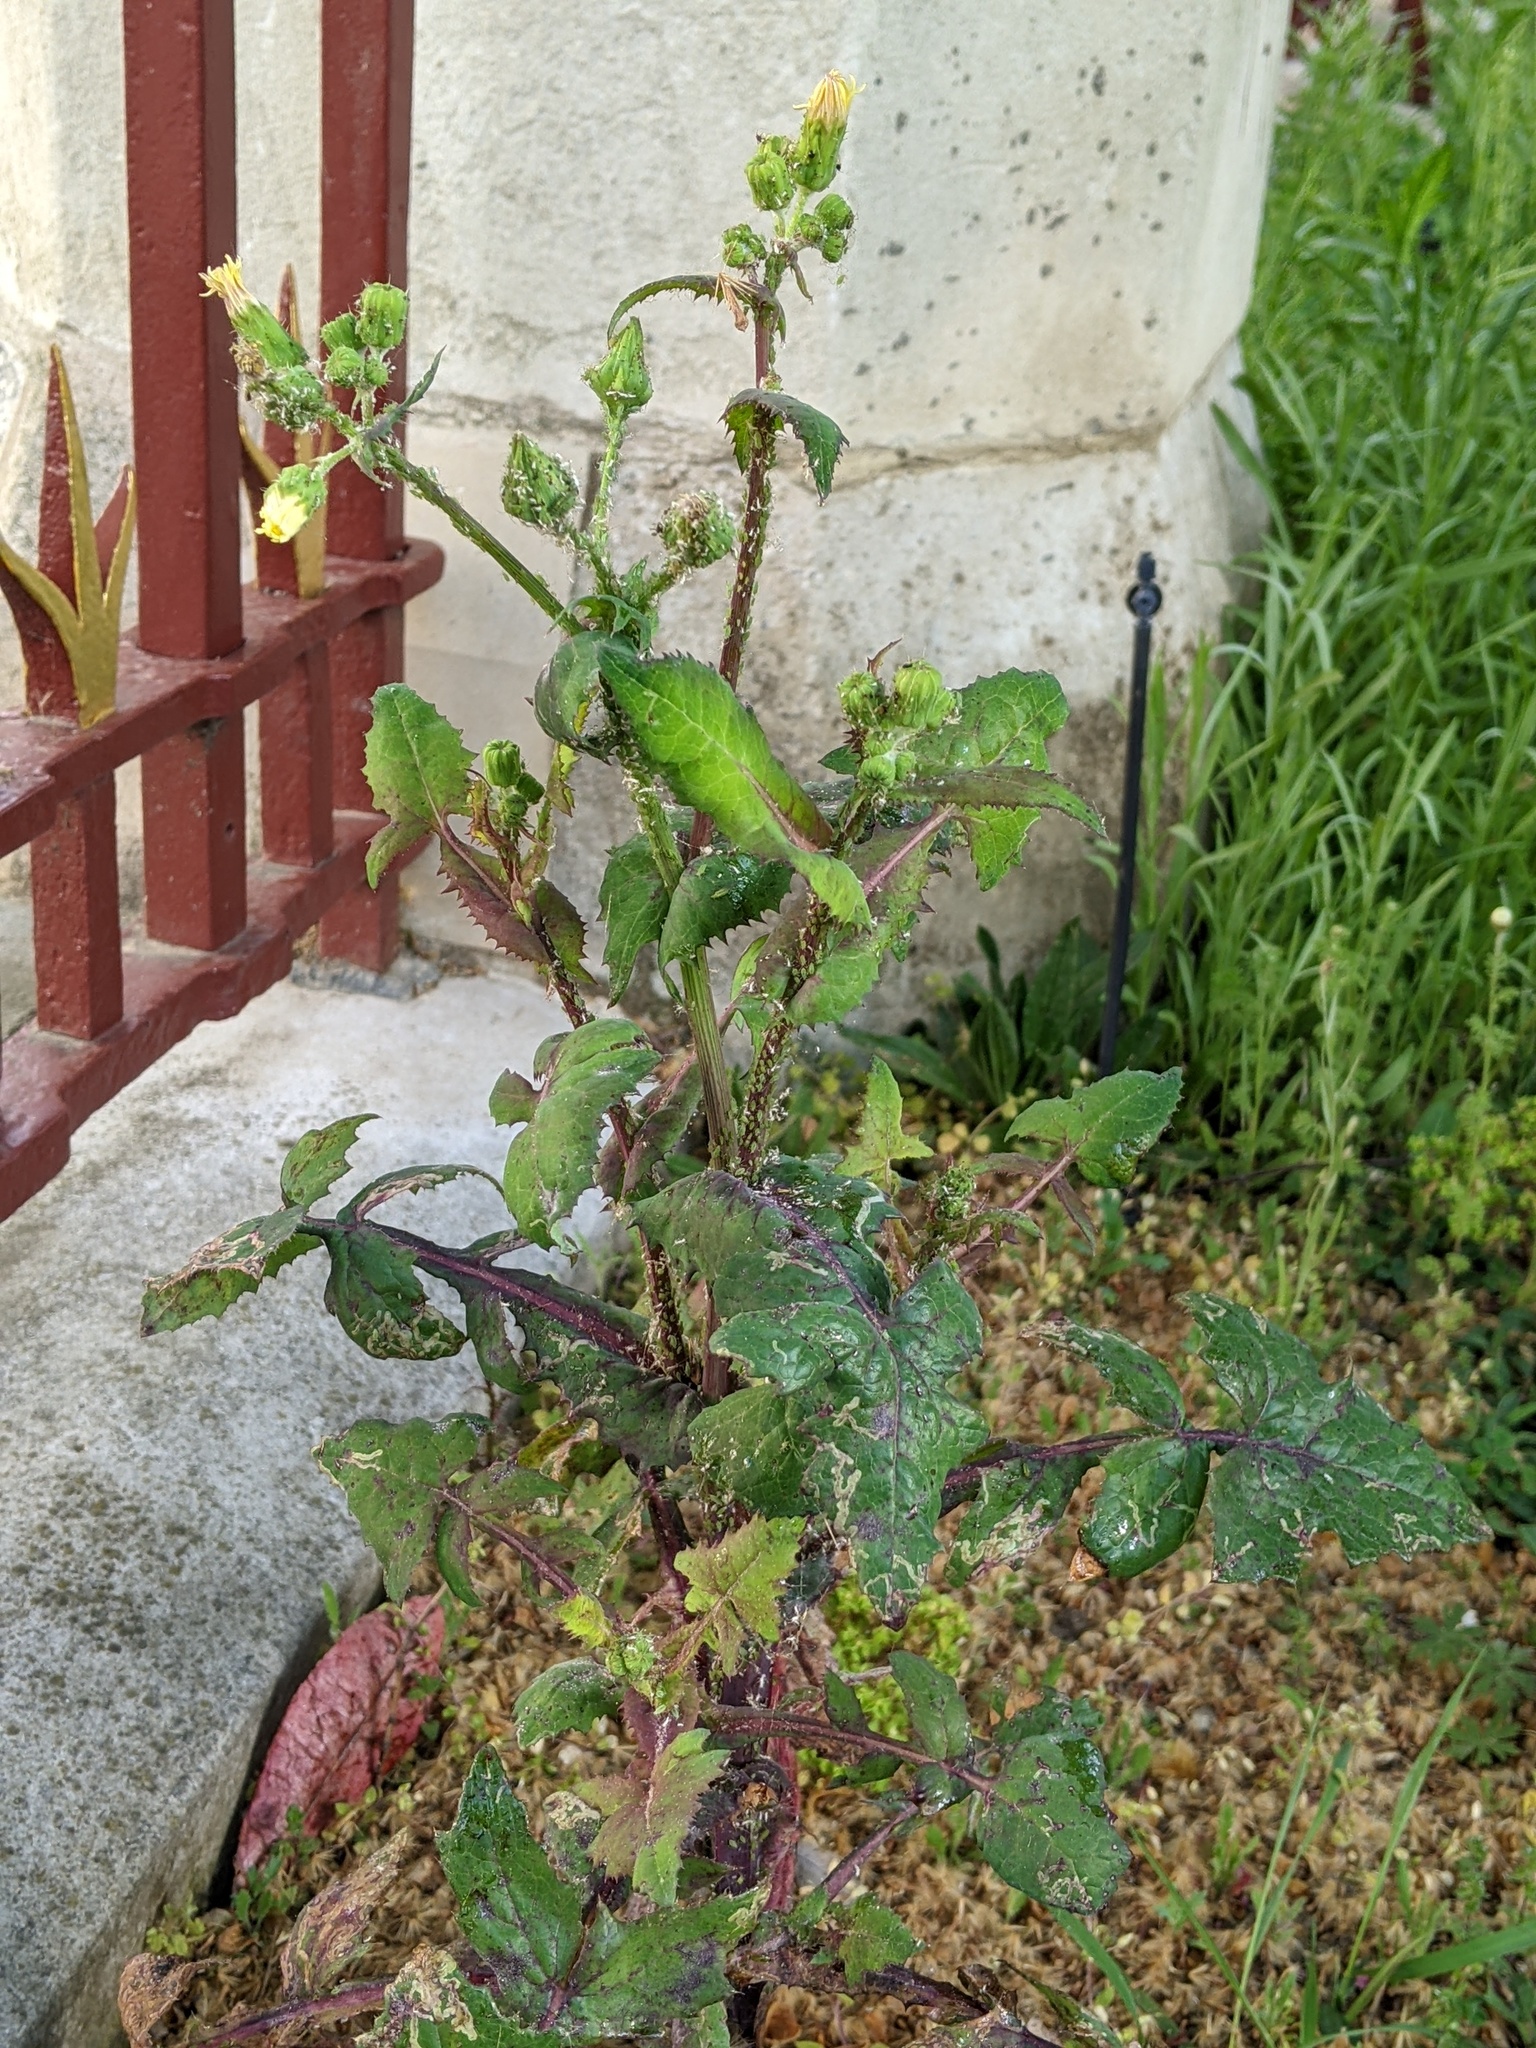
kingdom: Plantae
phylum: Tracheophyta
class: Magnoliopsida
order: Asterales
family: Asteraceae
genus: Sonchus
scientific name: Sonchus oleraceus
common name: Common sowthistle
